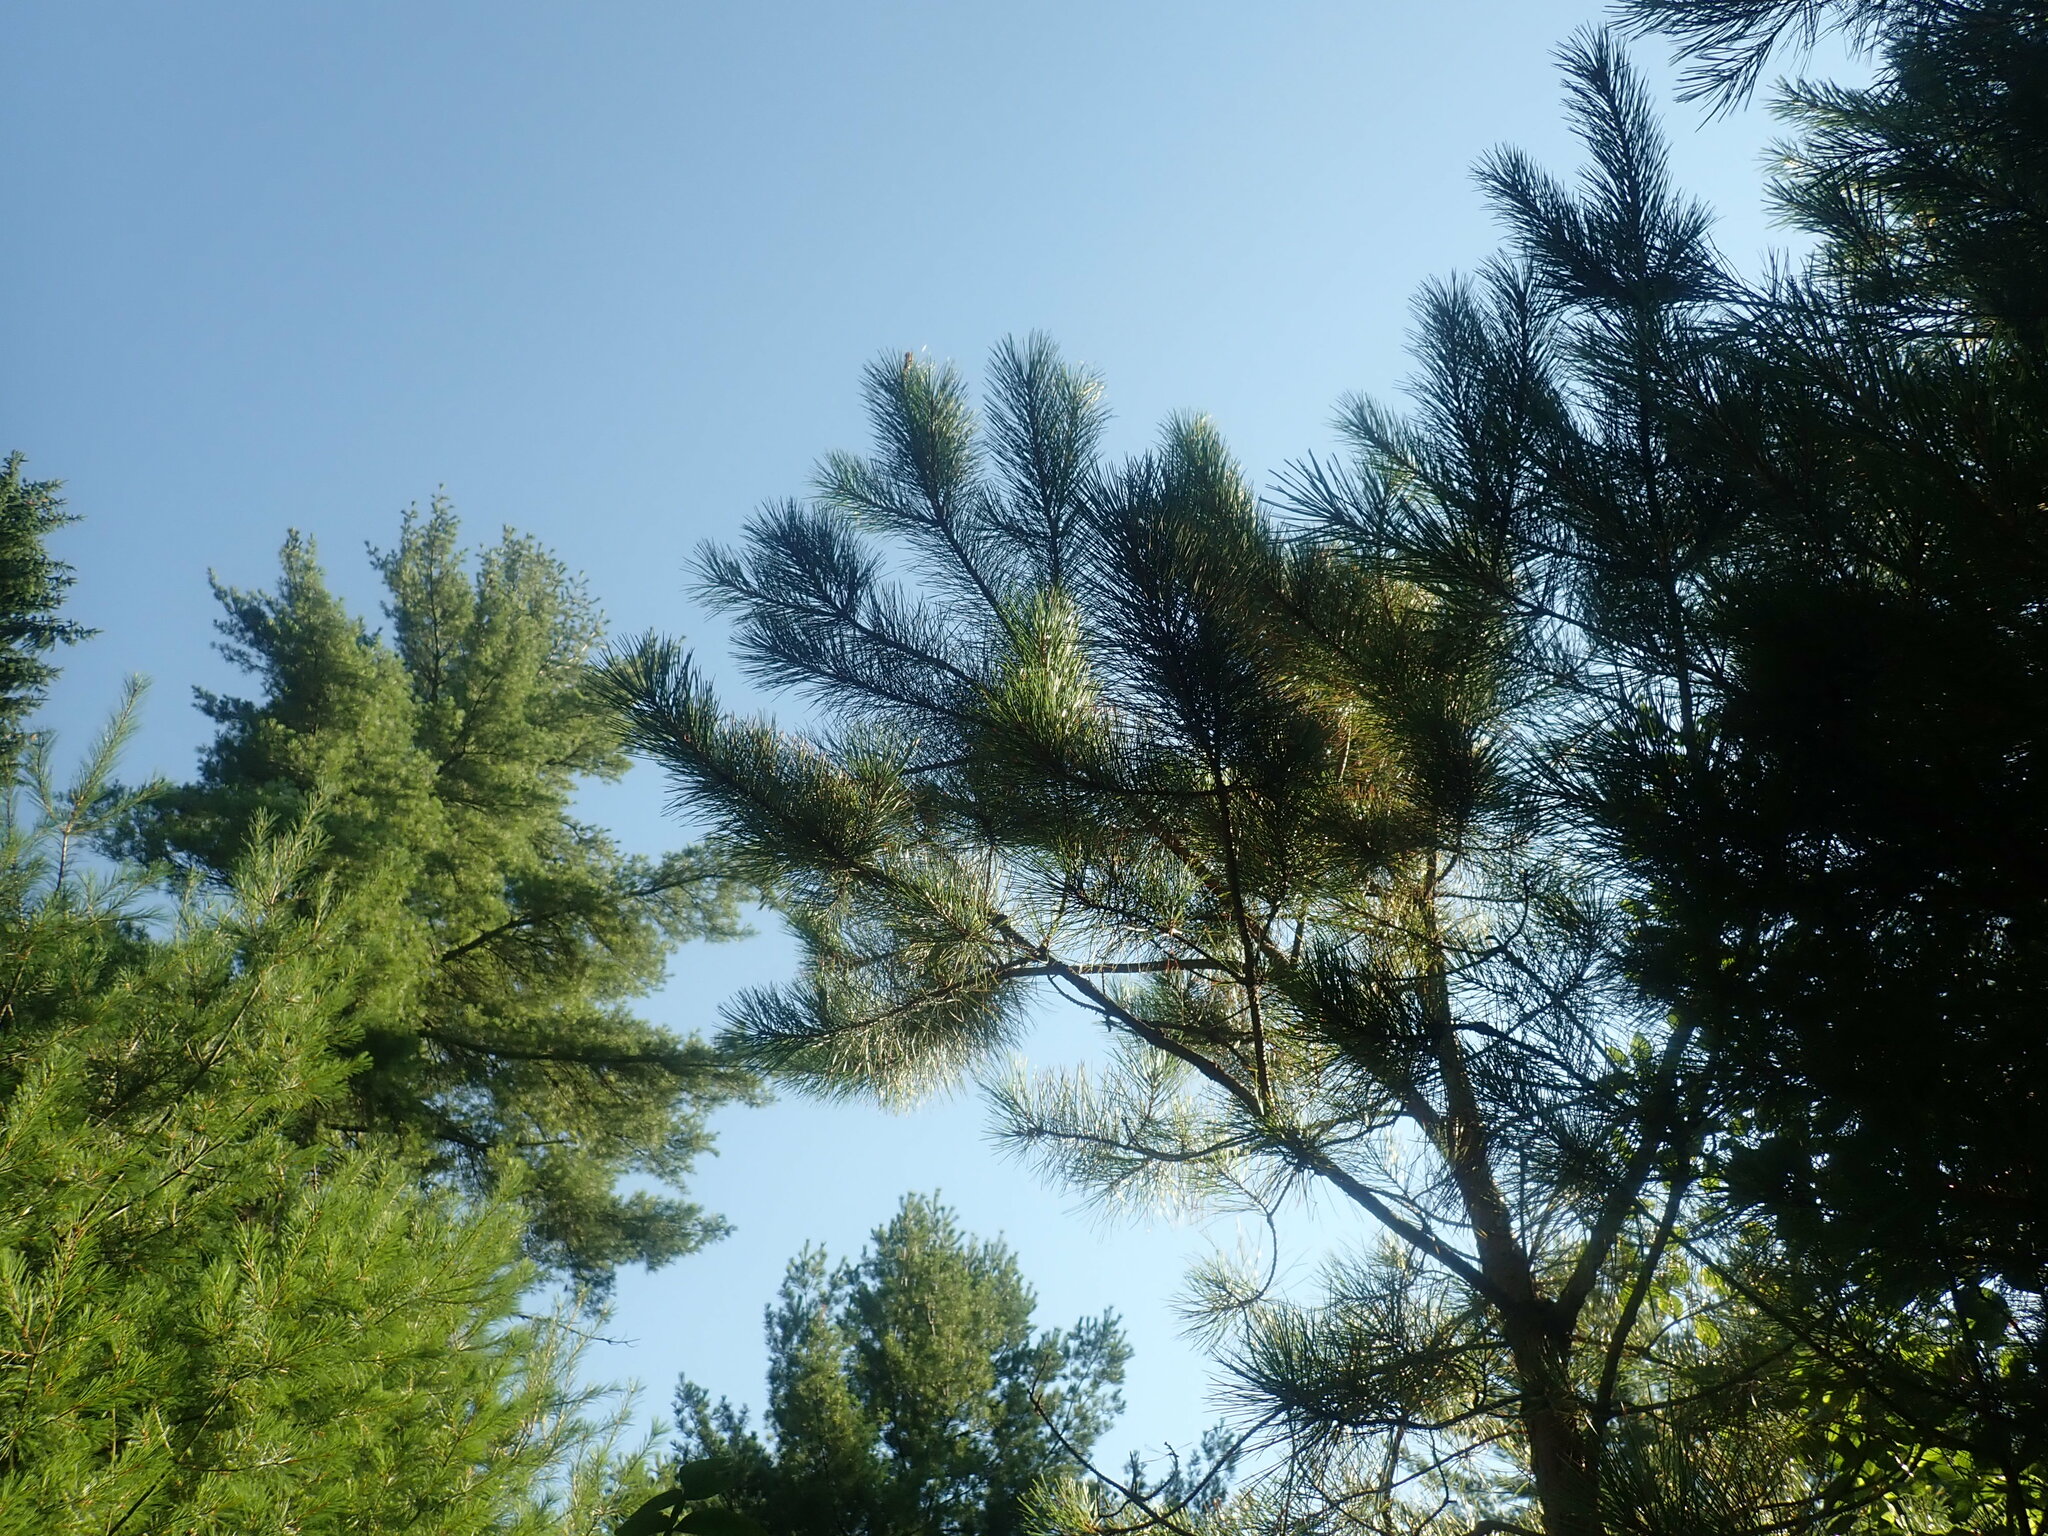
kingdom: Plantae
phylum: Tracheophyta
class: Pinopsida
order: Pinales
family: Pinaceae
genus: Pinus
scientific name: Pinus rigida
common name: Pitch pine
